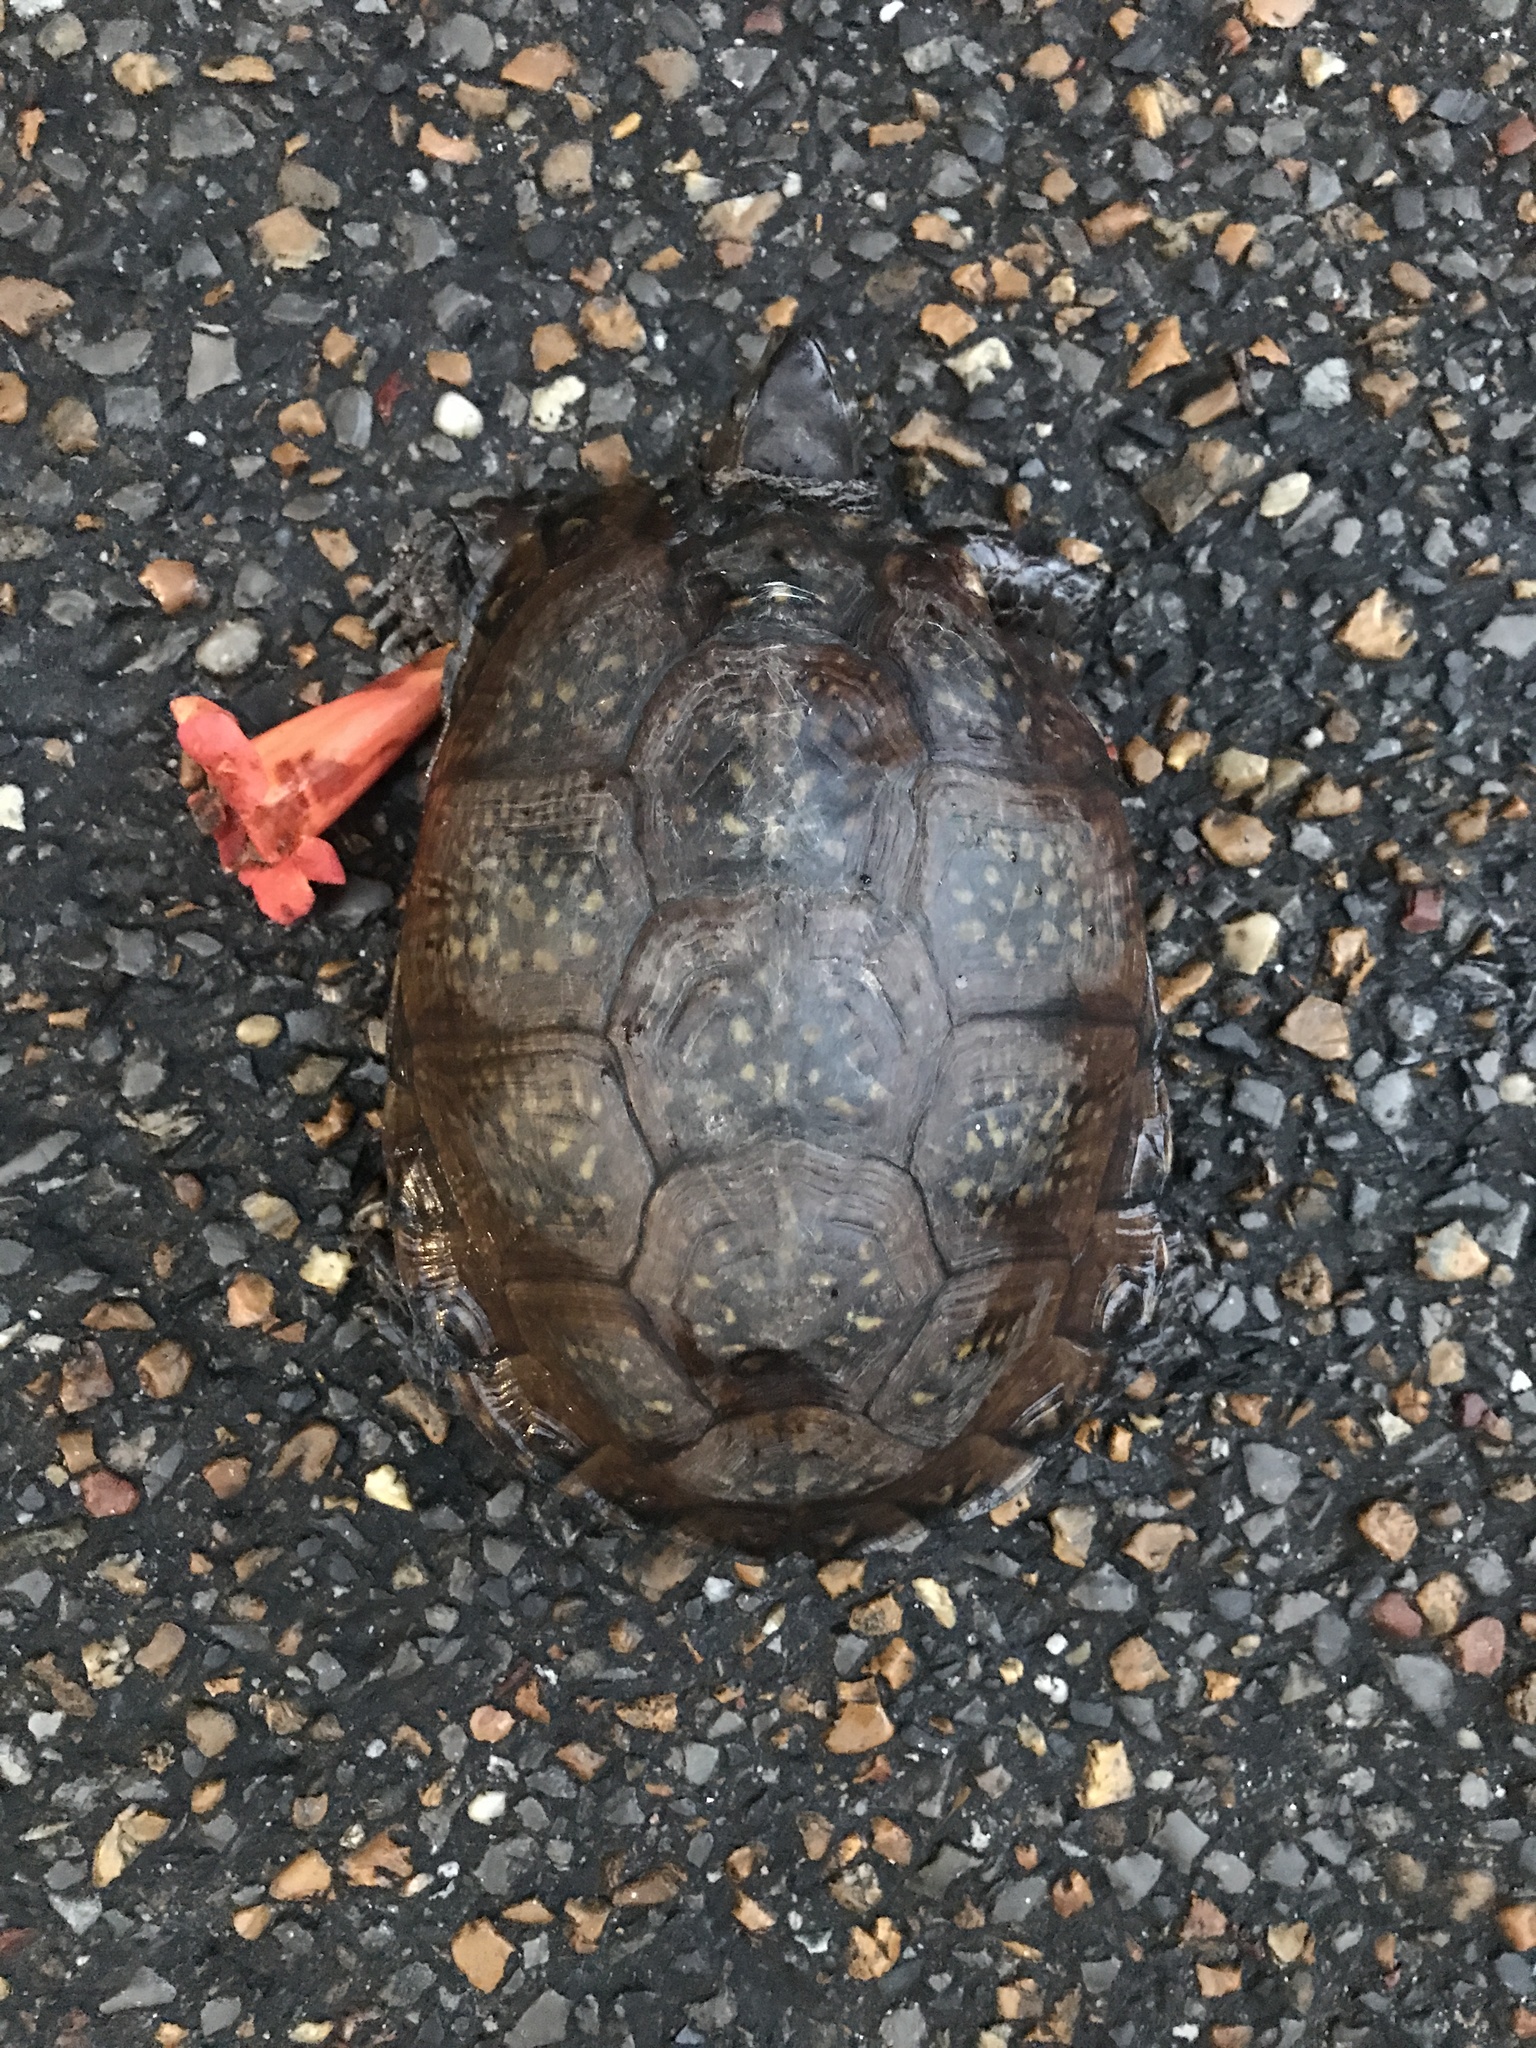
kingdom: Animalia
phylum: Chordata
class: Testudines
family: Emydidae
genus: Terrapene
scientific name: Terrapene carolina
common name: Common box turtle
